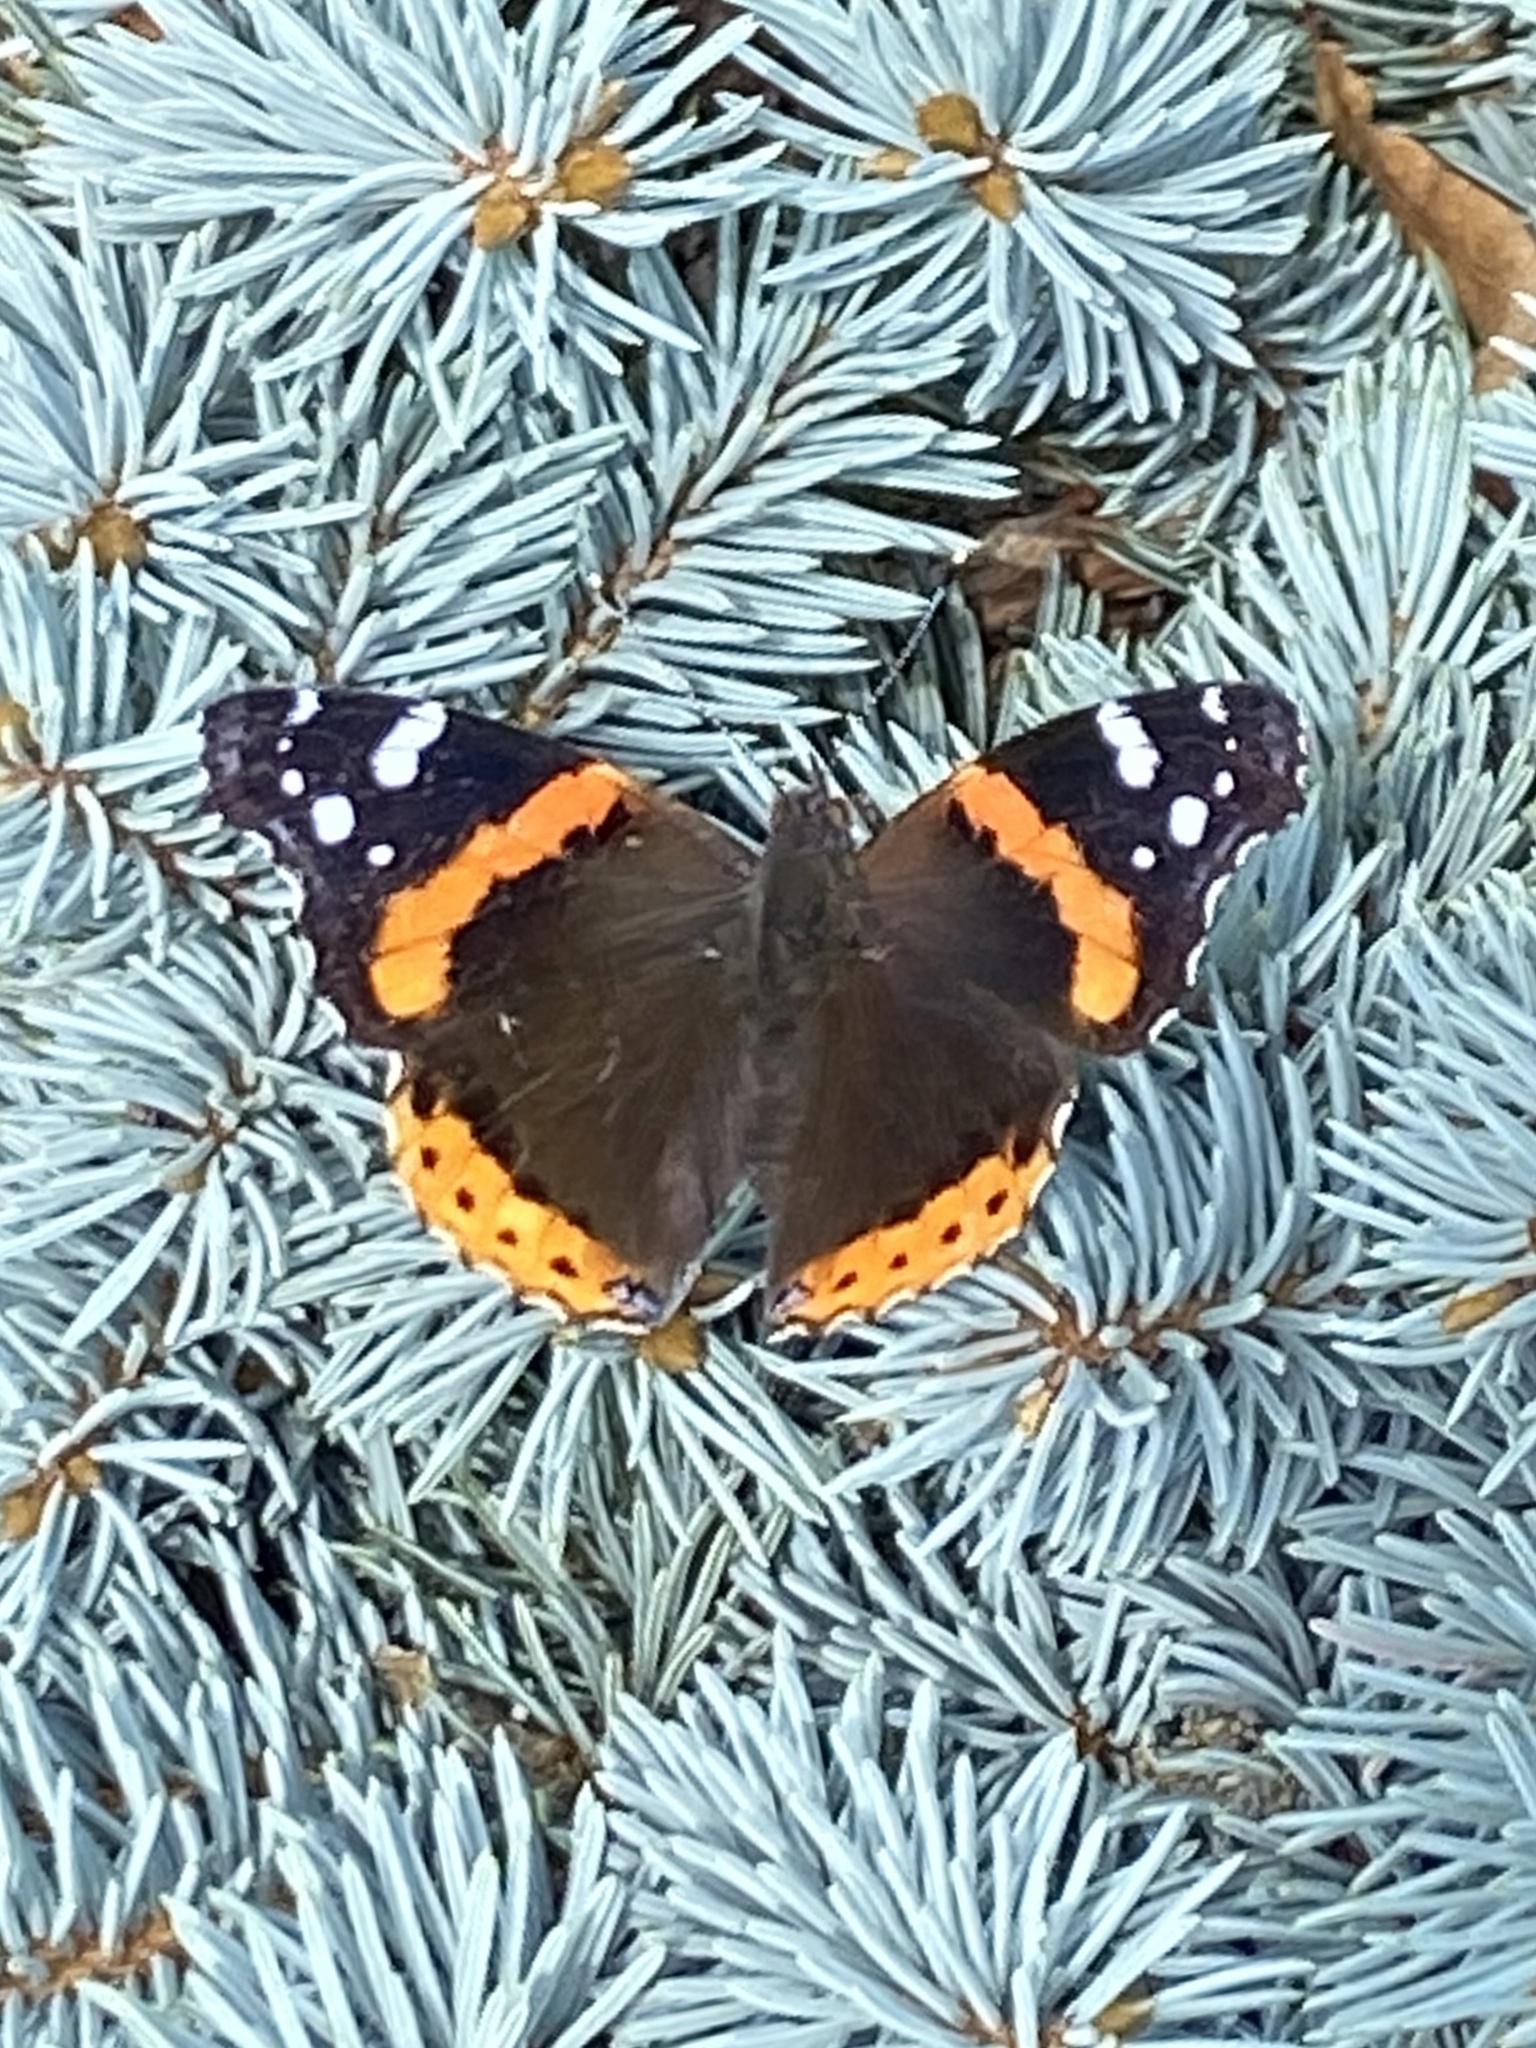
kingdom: Animalia
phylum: Arthropoda
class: Insecta
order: Lepidoptera
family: Nymphalidae
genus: Vanessa
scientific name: Vanessa atalanta
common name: Red admiral
